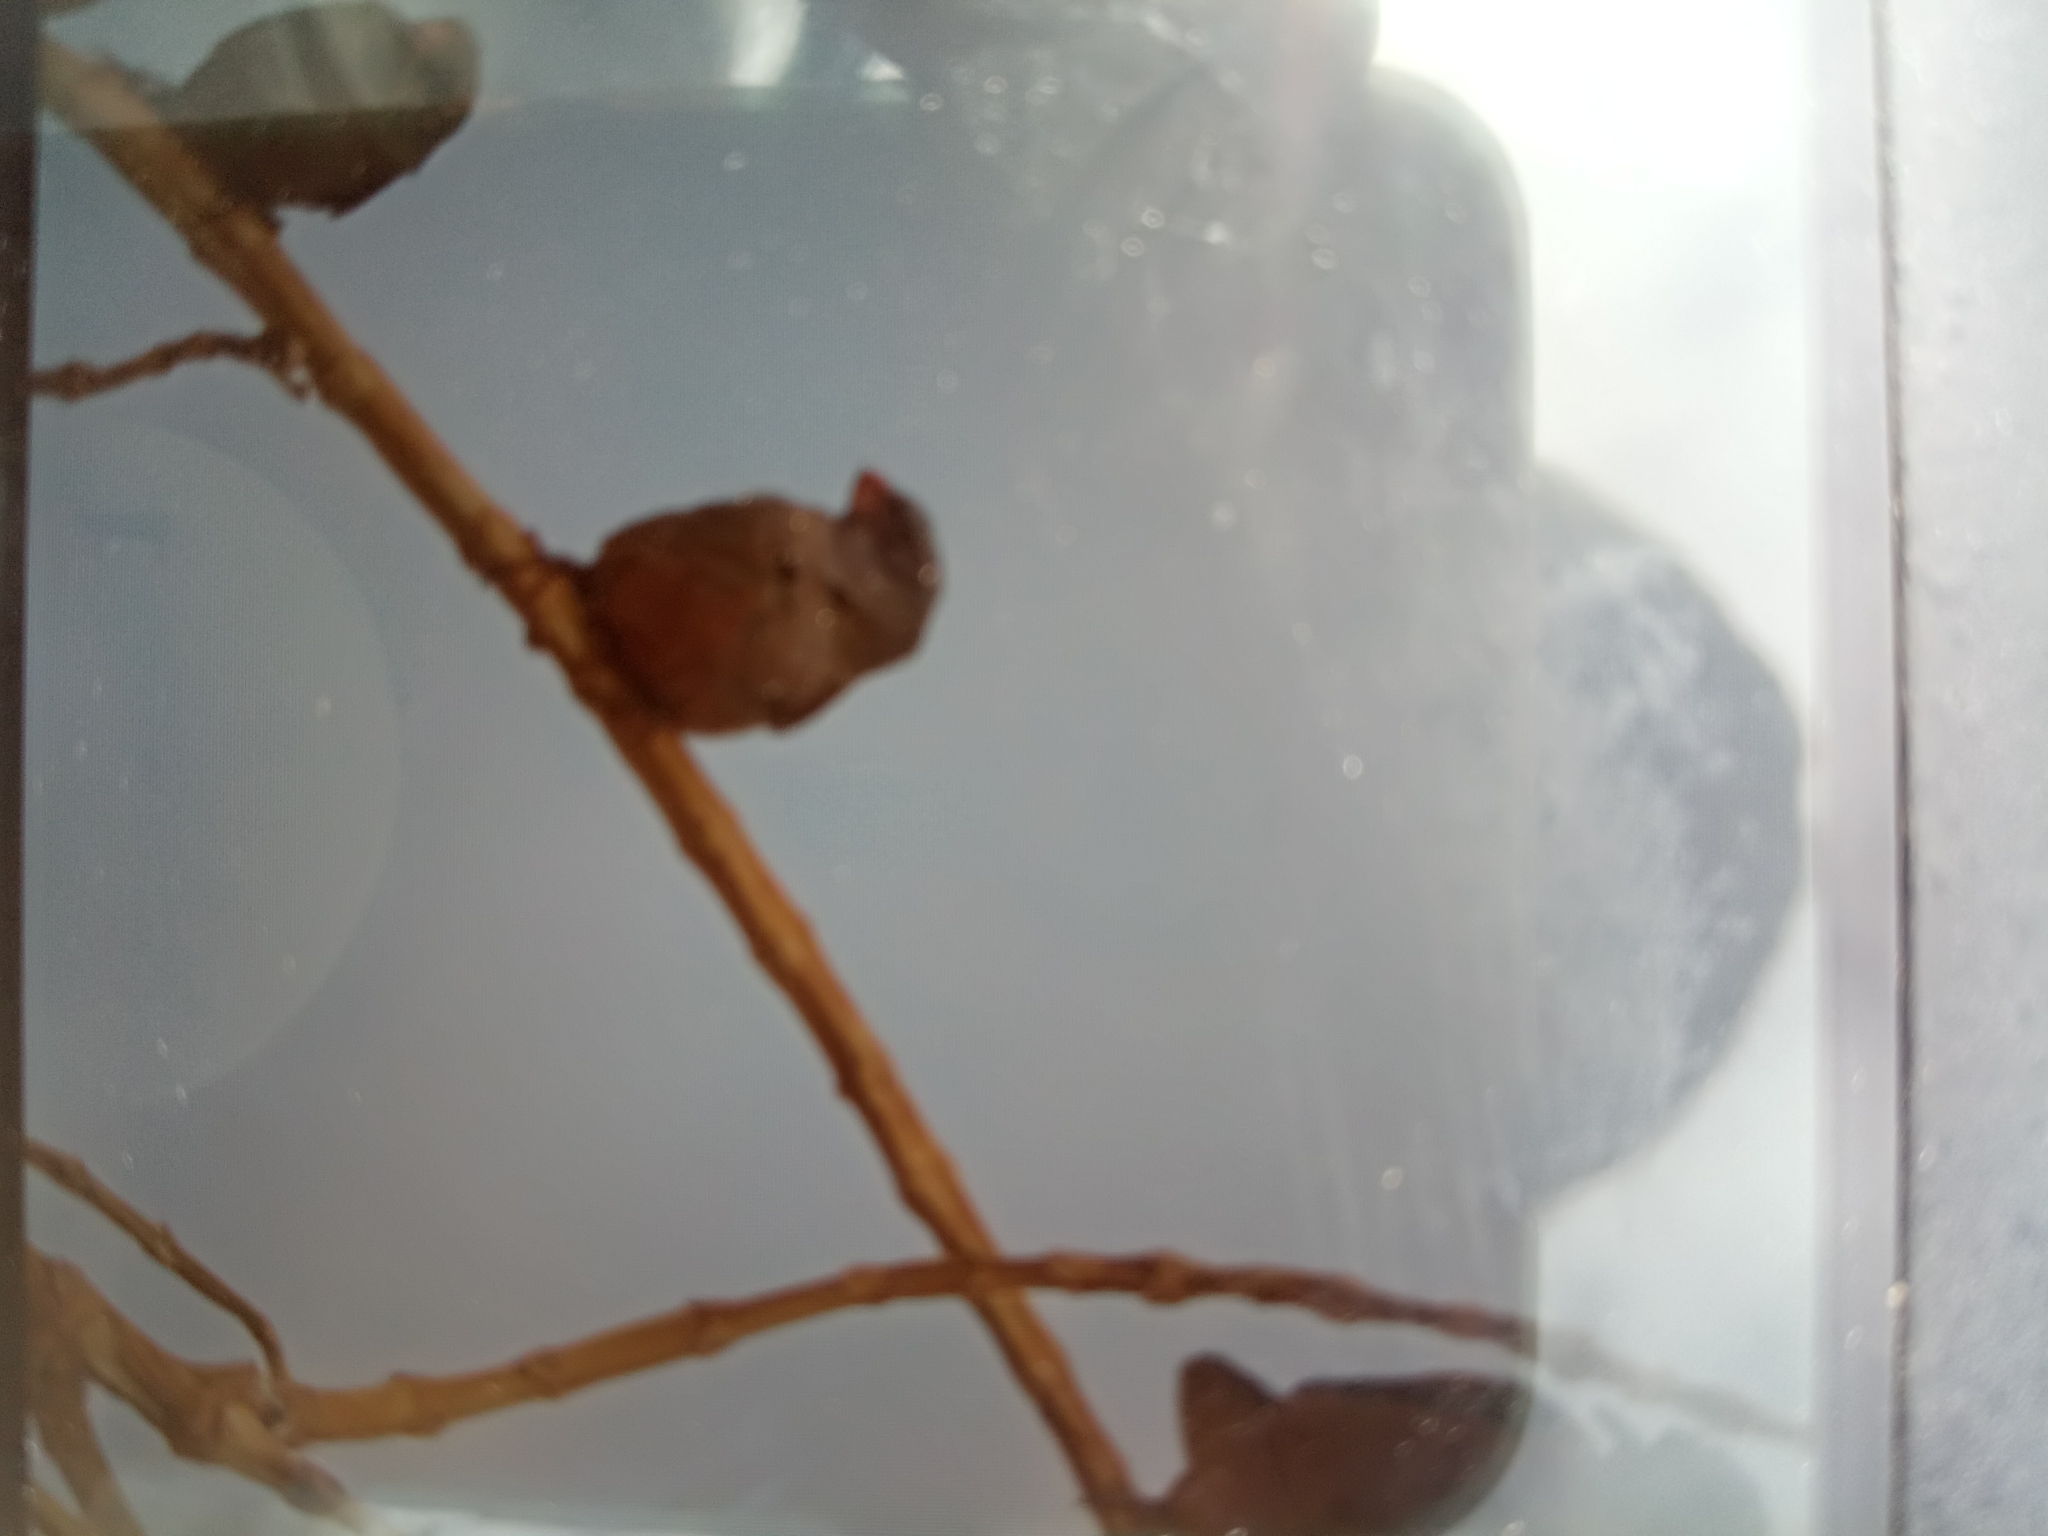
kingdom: Animalia
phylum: Chordata
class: Aves
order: Passeriformes
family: Fringillidae
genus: Bucanetes
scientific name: Bucanetes githagineus
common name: Trumpeter finch
